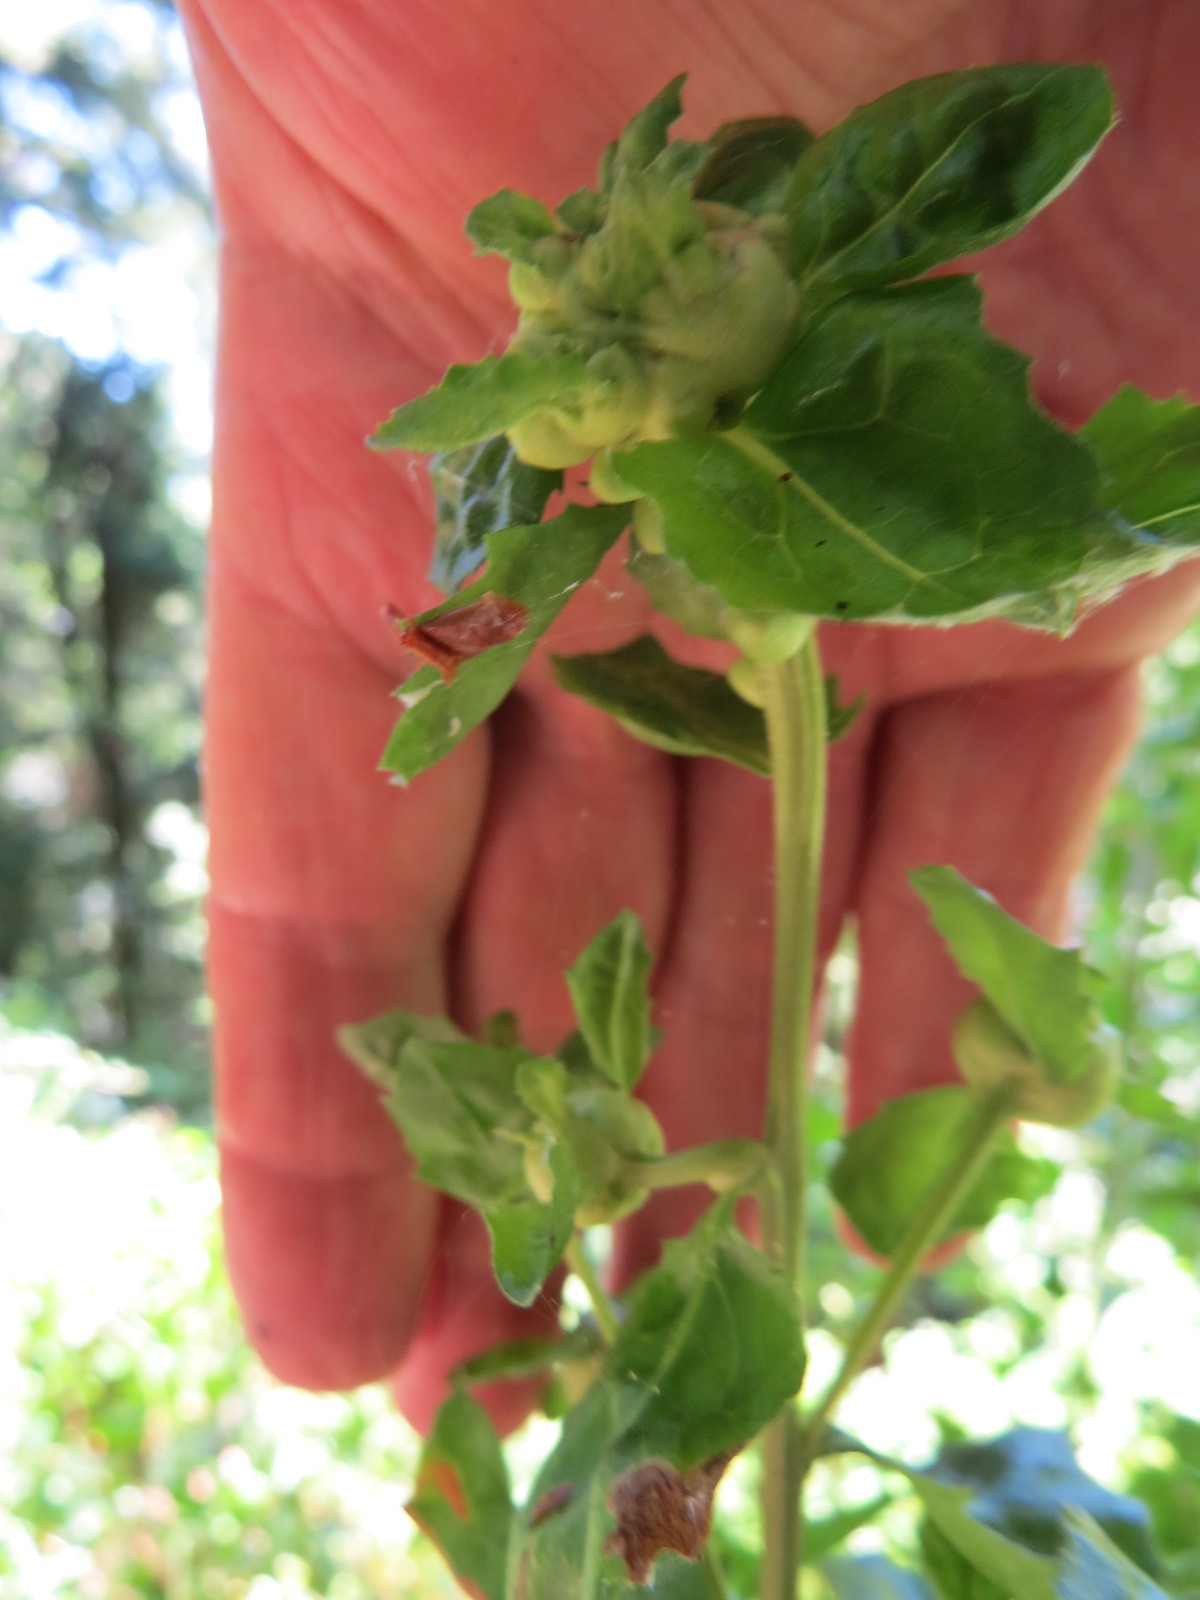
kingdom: Animalia
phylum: Arthropoda
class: Insecta
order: Diptera
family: Cecidomyiidae
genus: Rhopalomyia
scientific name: Rhopalomyia californica
